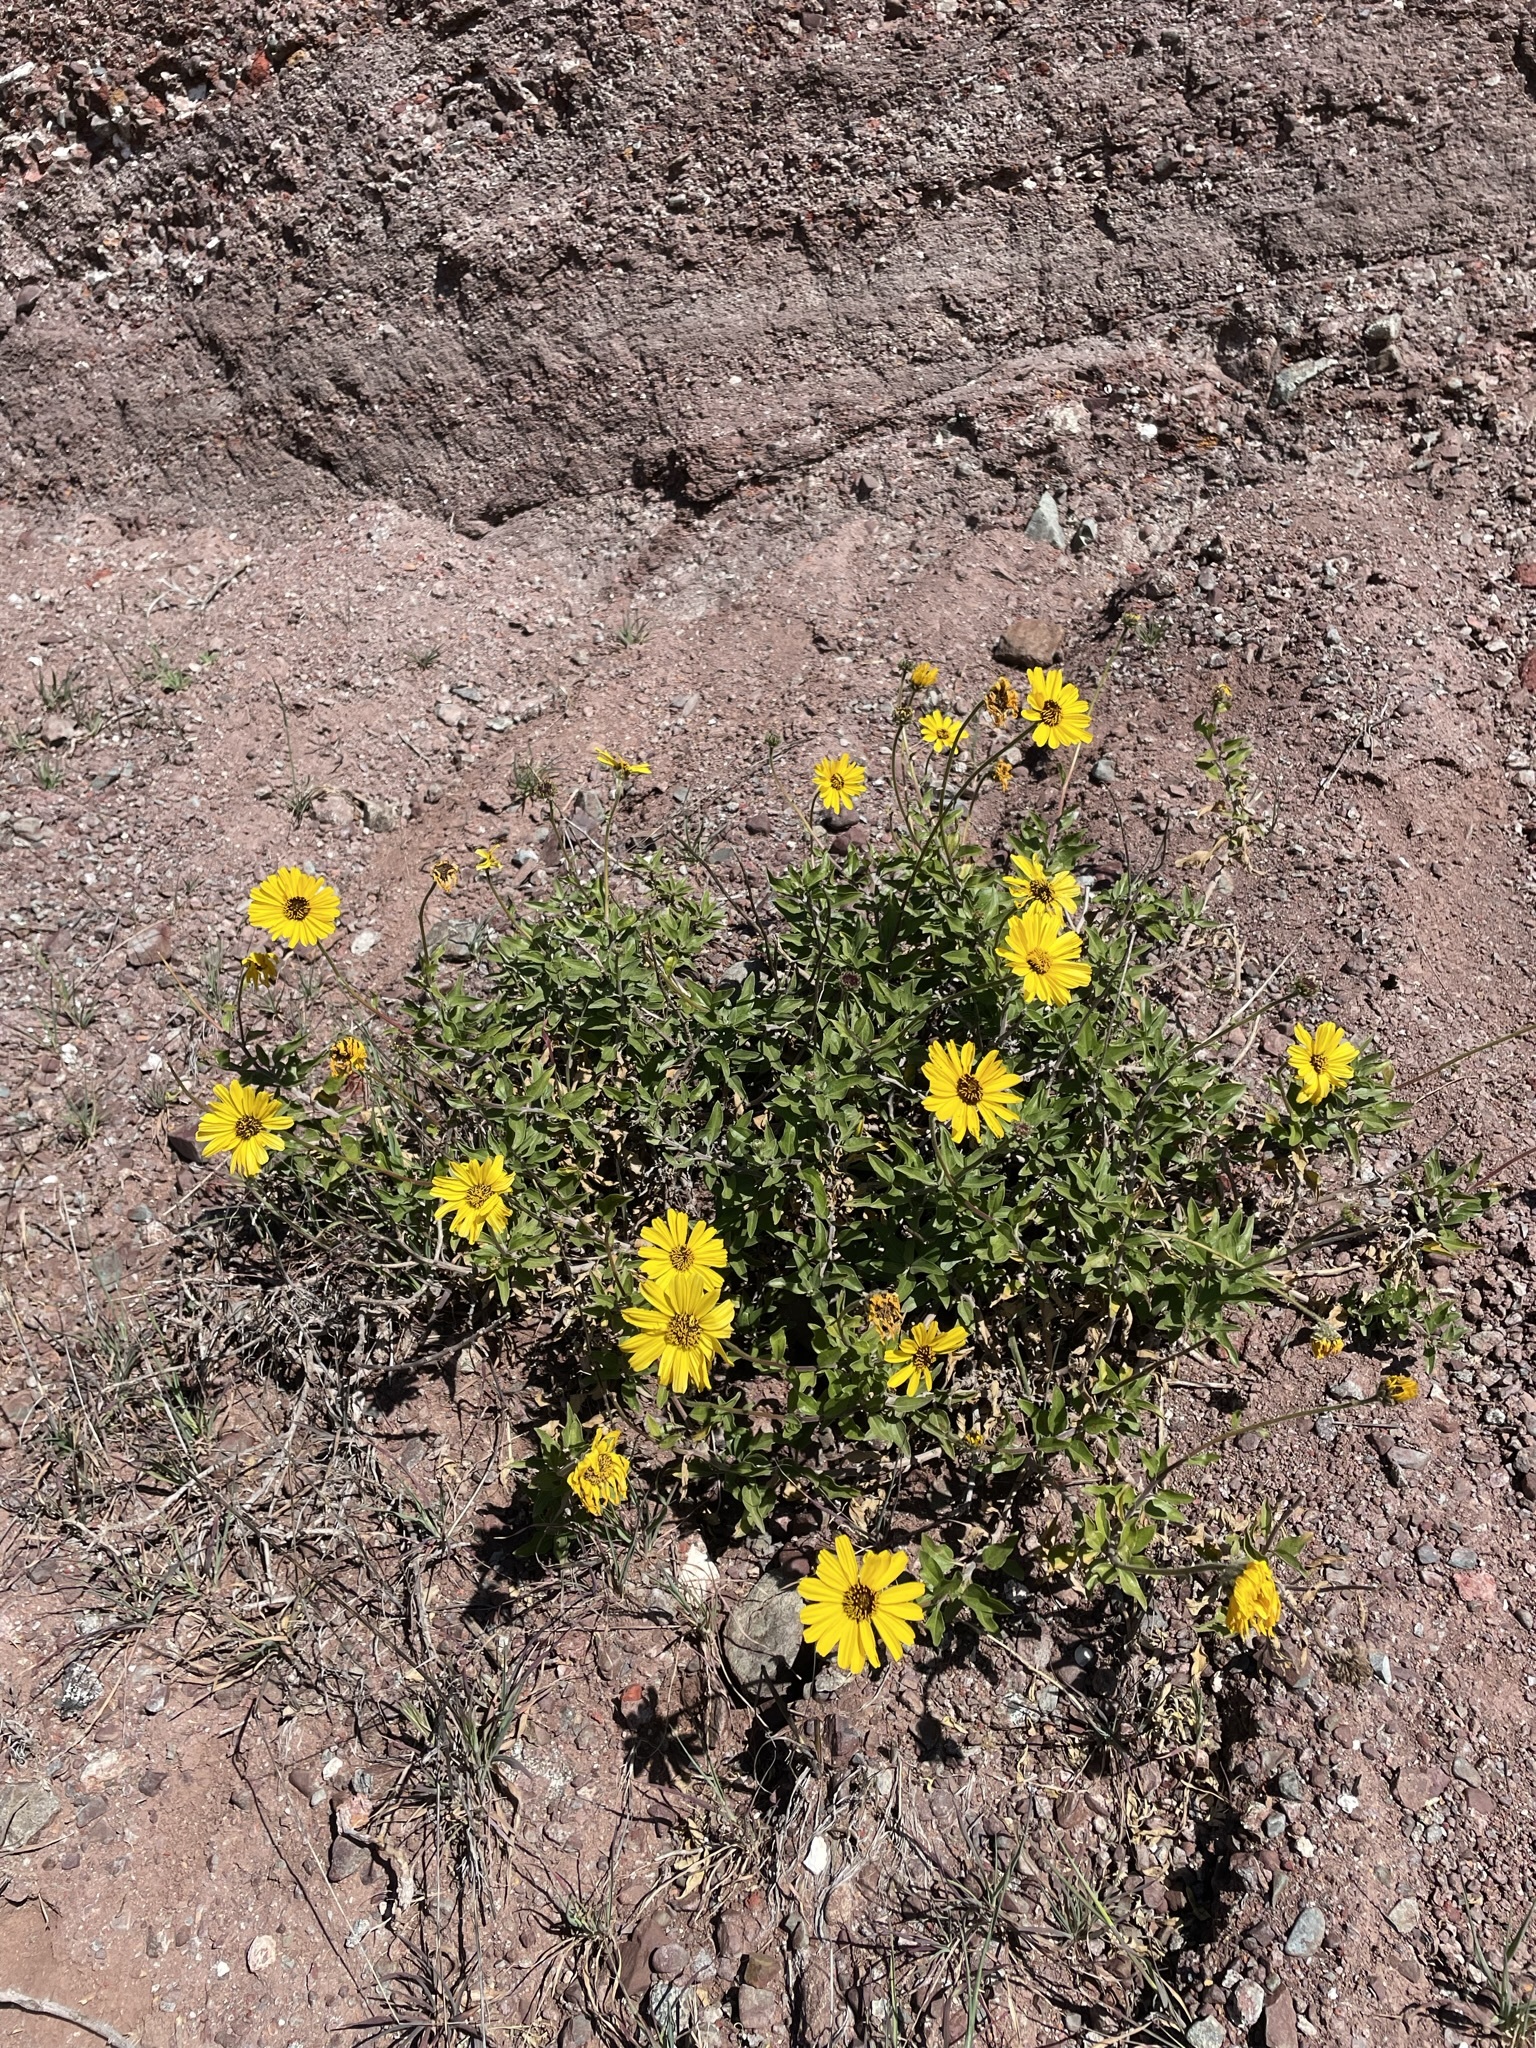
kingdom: Plantae
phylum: Tracheophyta
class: Magnoliopsida
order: Asterales
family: Asteraceae
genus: Encelia
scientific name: Encelia californica
